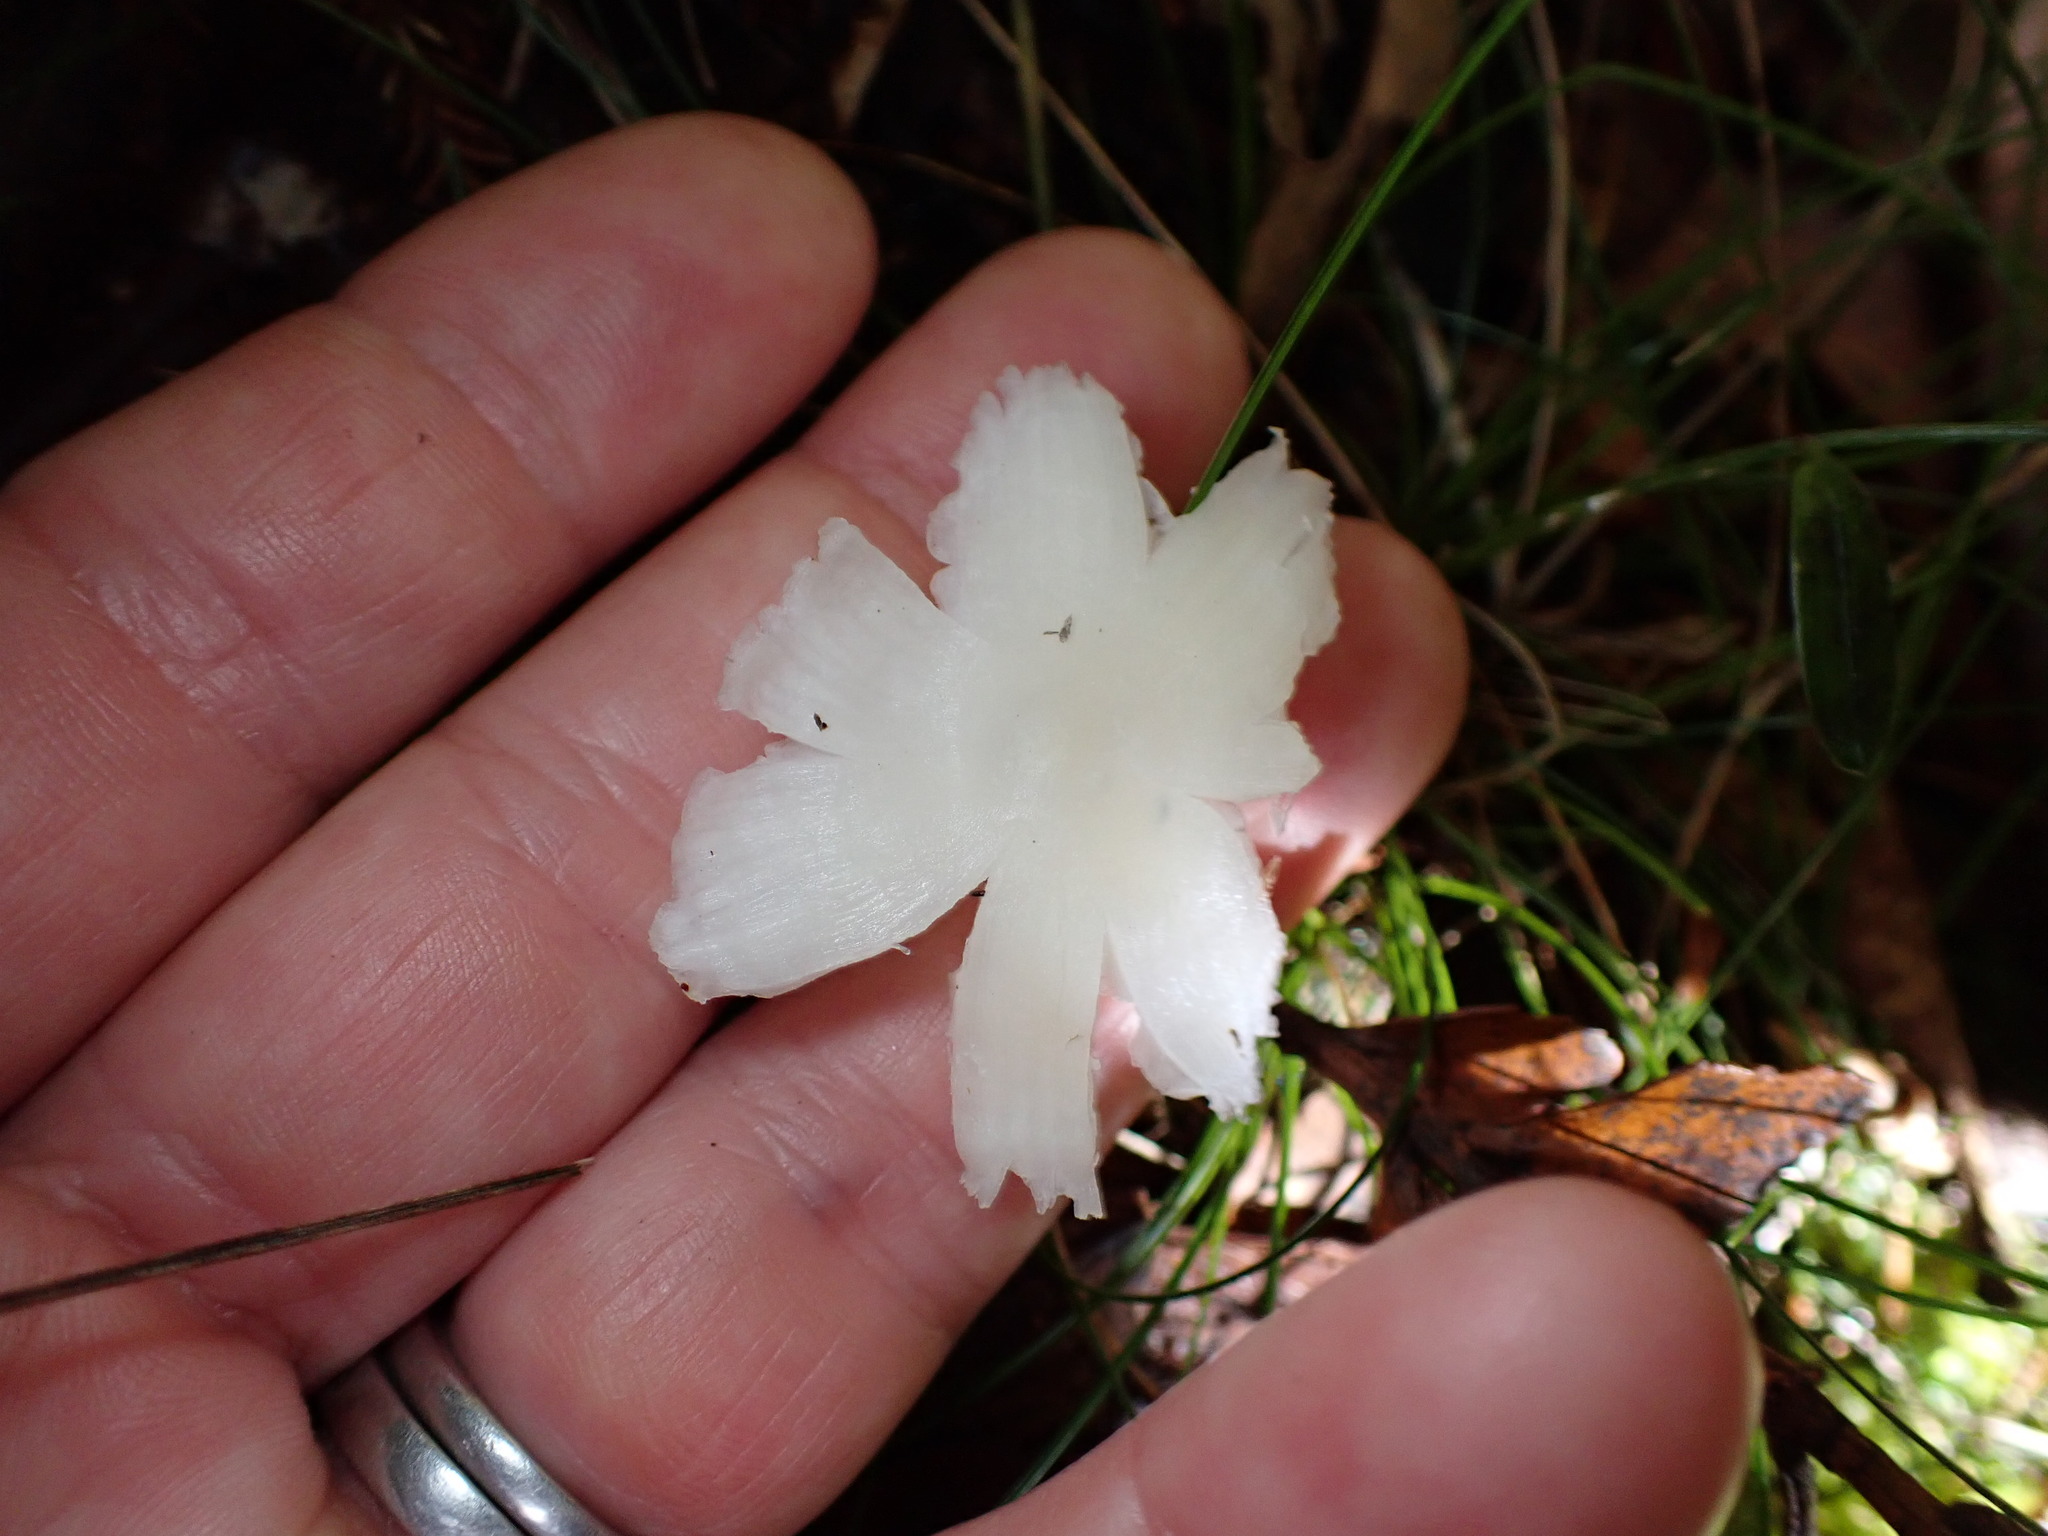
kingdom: Fungi
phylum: Basidiomycota
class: Agaricomycetes
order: Agaricales
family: Hygrophoraceae
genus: Humidicutis
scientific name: Humidicutis mavis
